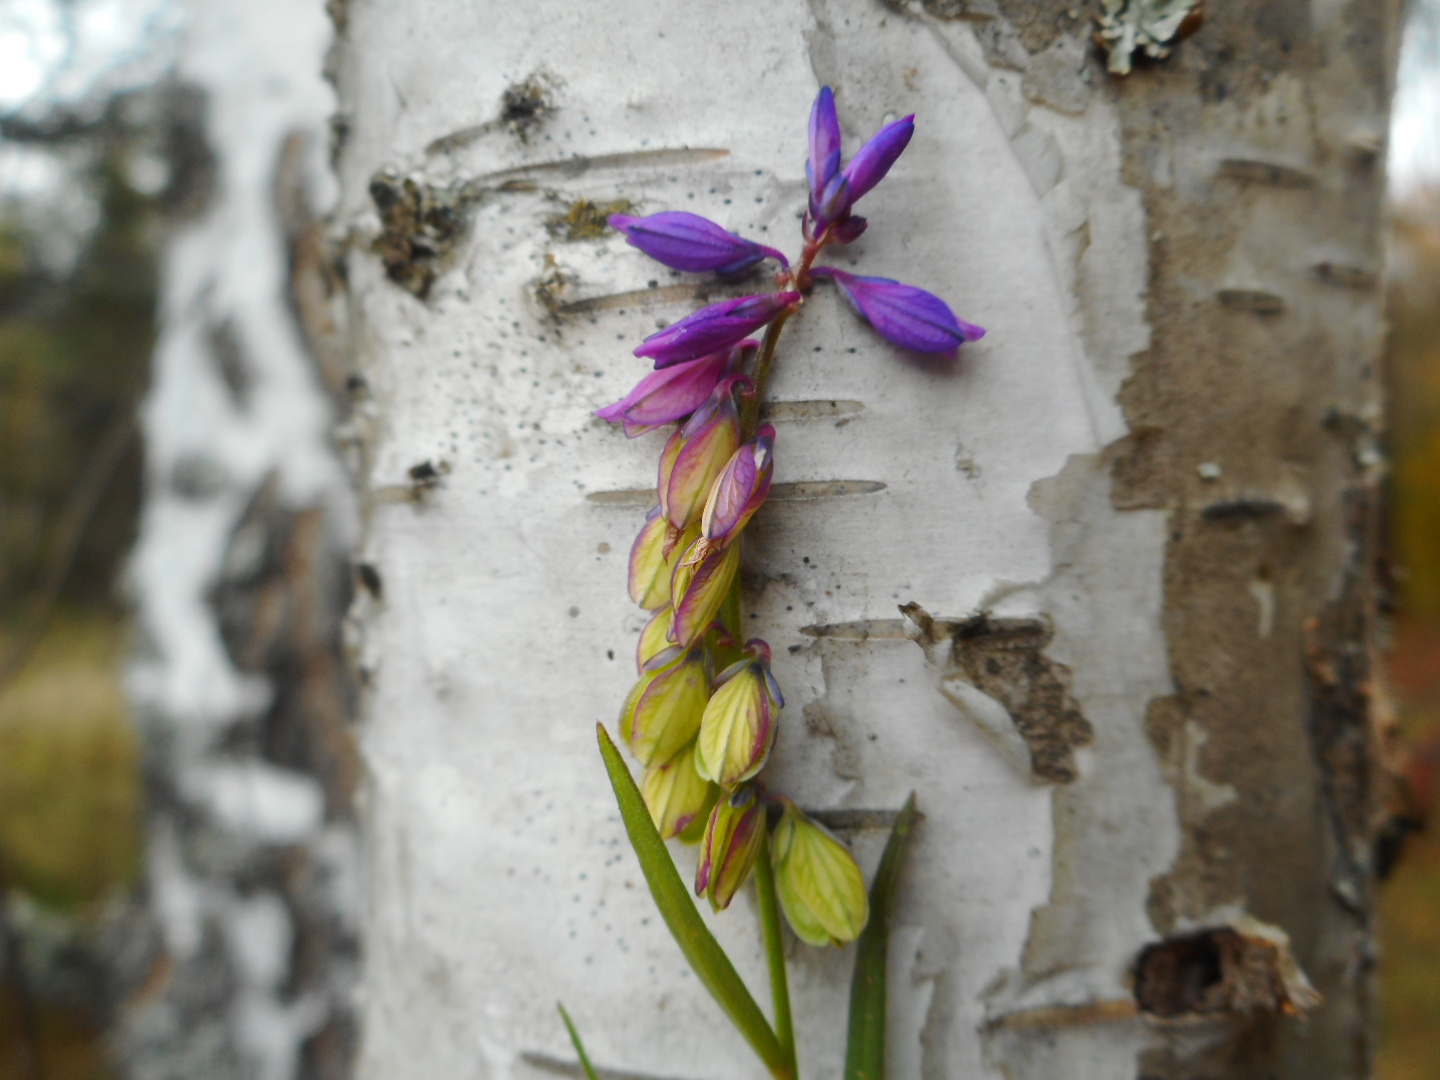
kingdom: Plantae
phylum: Tracheophyta
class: Magnoliopsida
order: Fabales
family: Polygalaceae
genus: Polygala
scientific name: Polygala comosa
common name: Tufted milkwort
